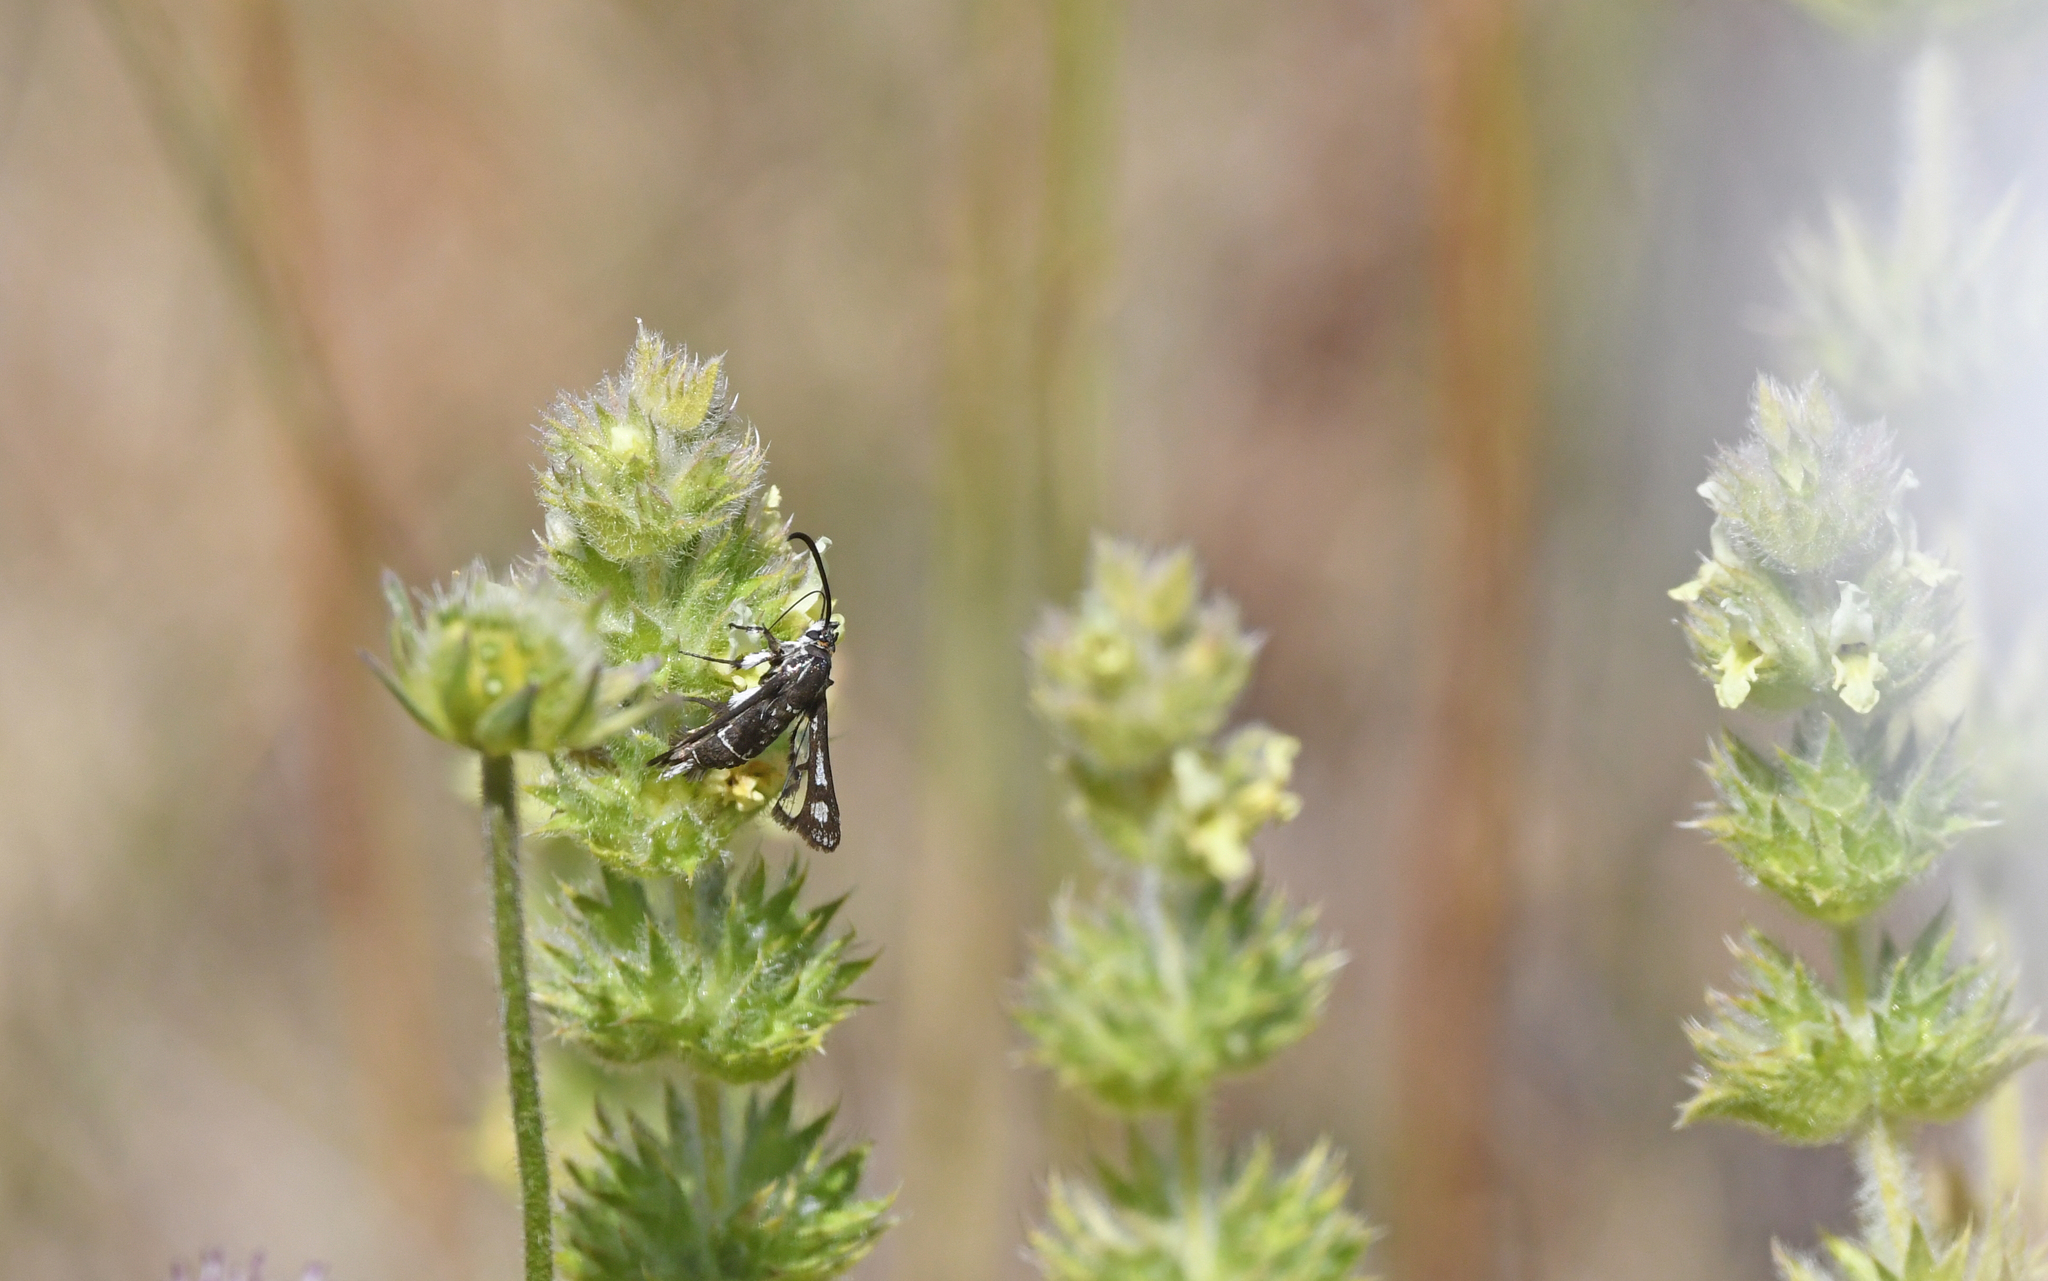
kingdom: Animalia
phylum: Arthropoda
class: Insecta
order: Lepidoptera
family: Sesiidae
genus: Pyropteron
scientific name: Pyropteron affinis
